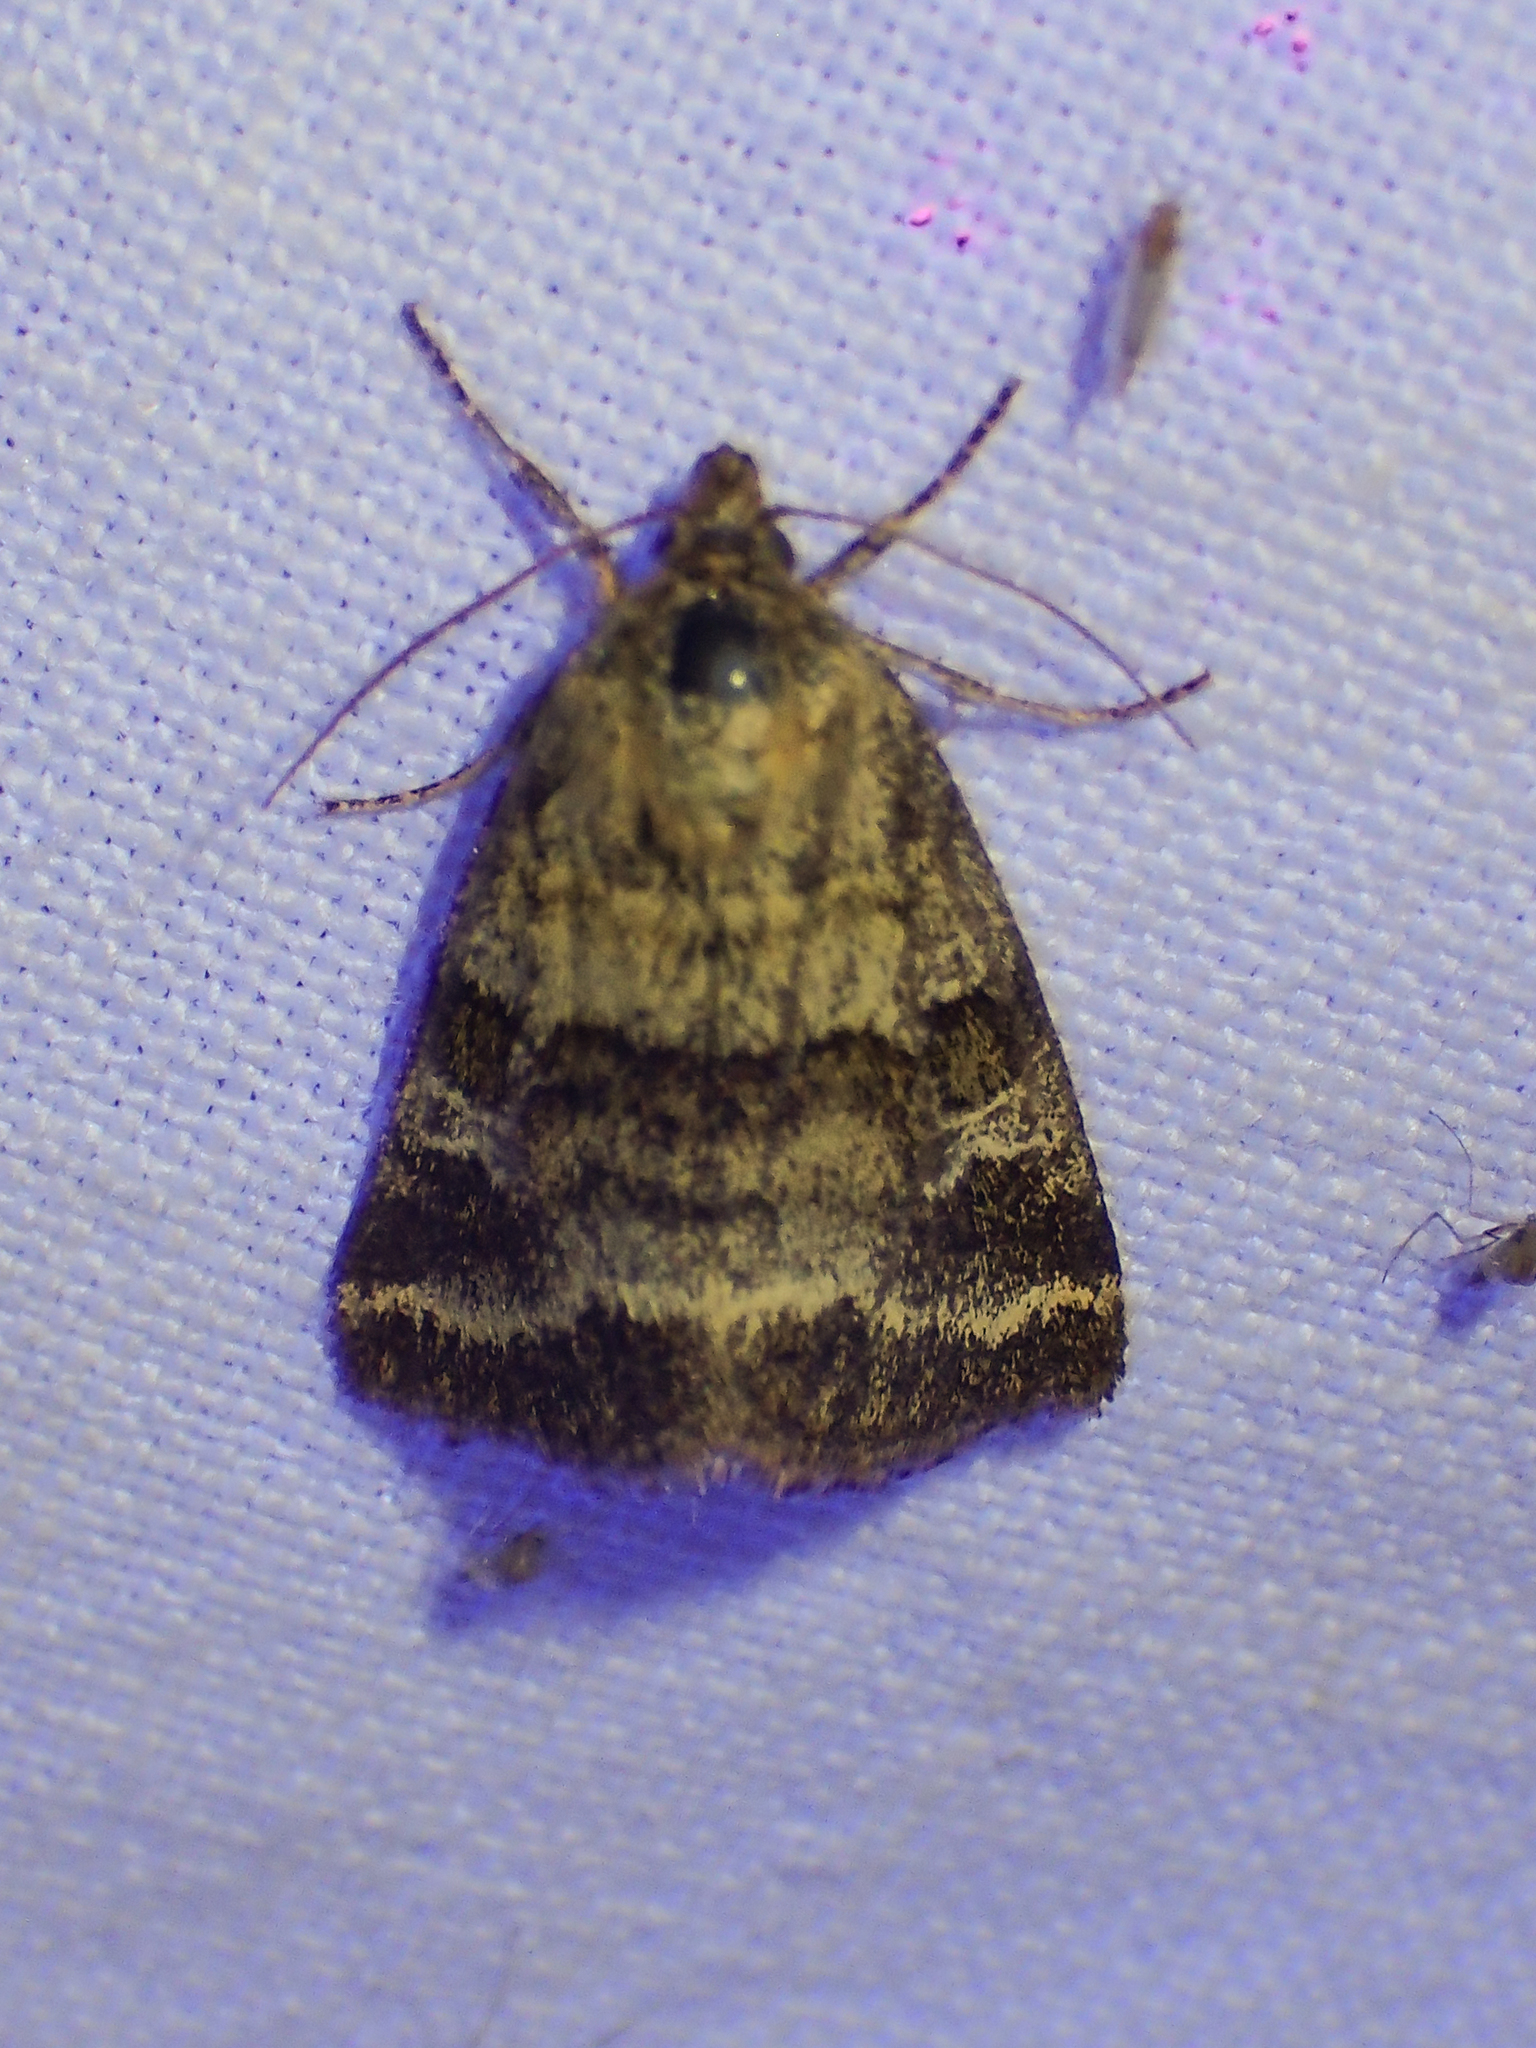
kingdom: Animalia
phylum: Arthropoda
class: Insecta
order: Lepidoptera
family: Noctuidae
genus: Synthymia
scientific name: Synthymia fixa
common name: Goldwing
